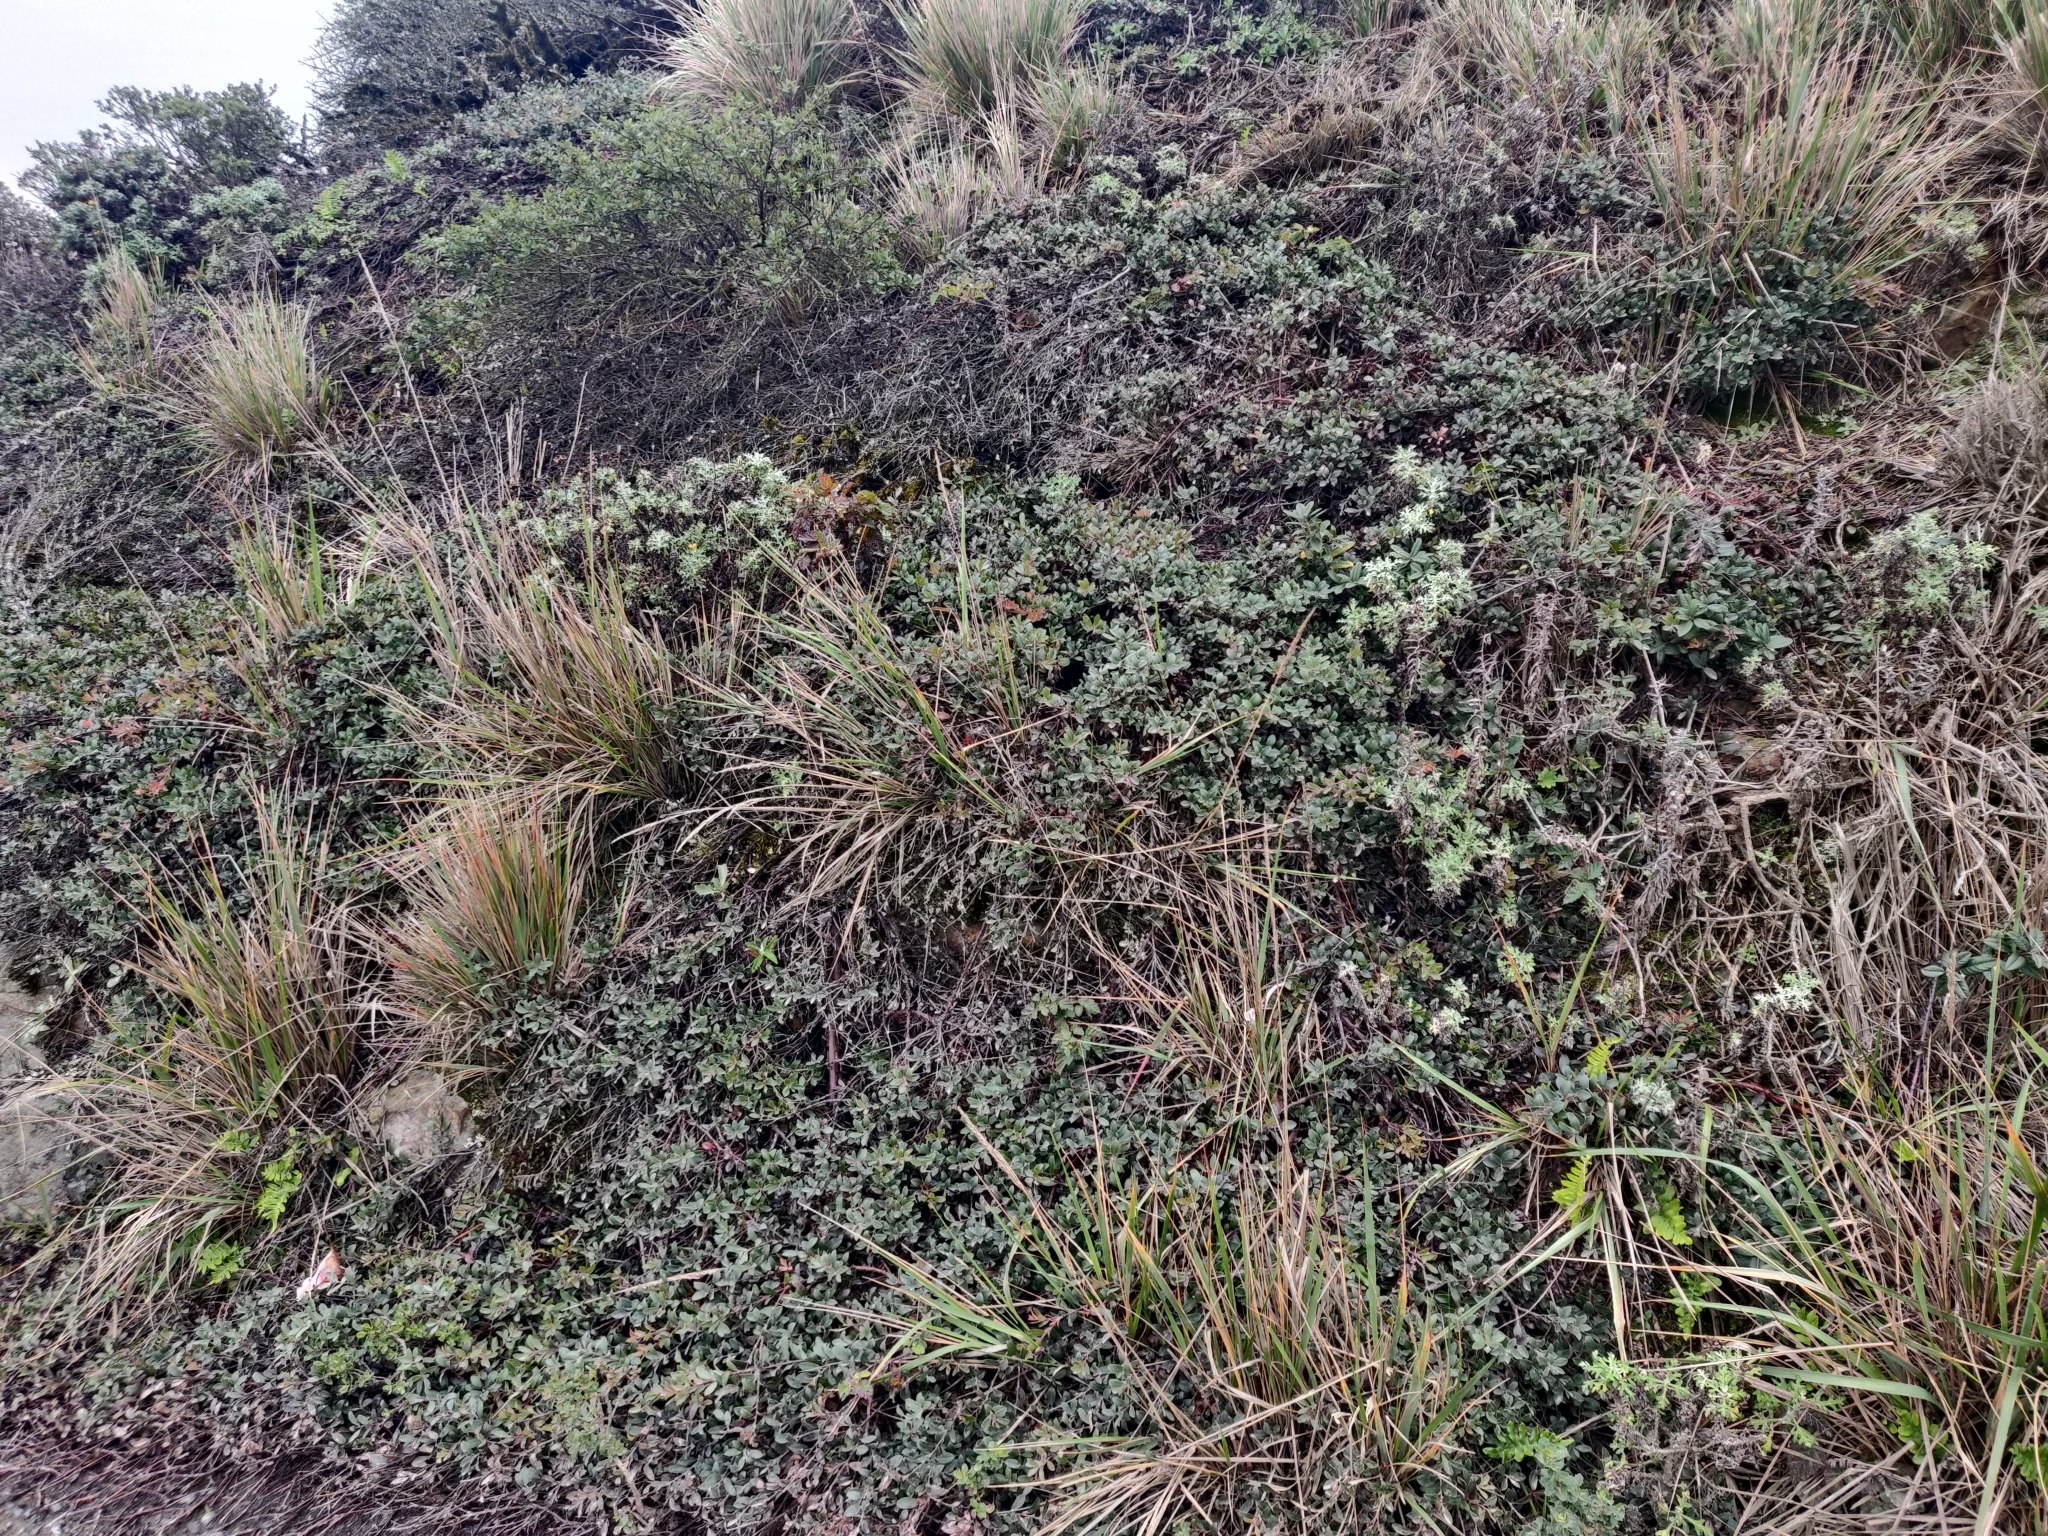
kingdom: Plantae
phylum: Tracheophyta
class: Magnoliopsida
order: Ericales
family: Ericaceae
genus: Arctostaphylos
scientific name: Arctostaphylos uva-ursi
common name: Bearberry
